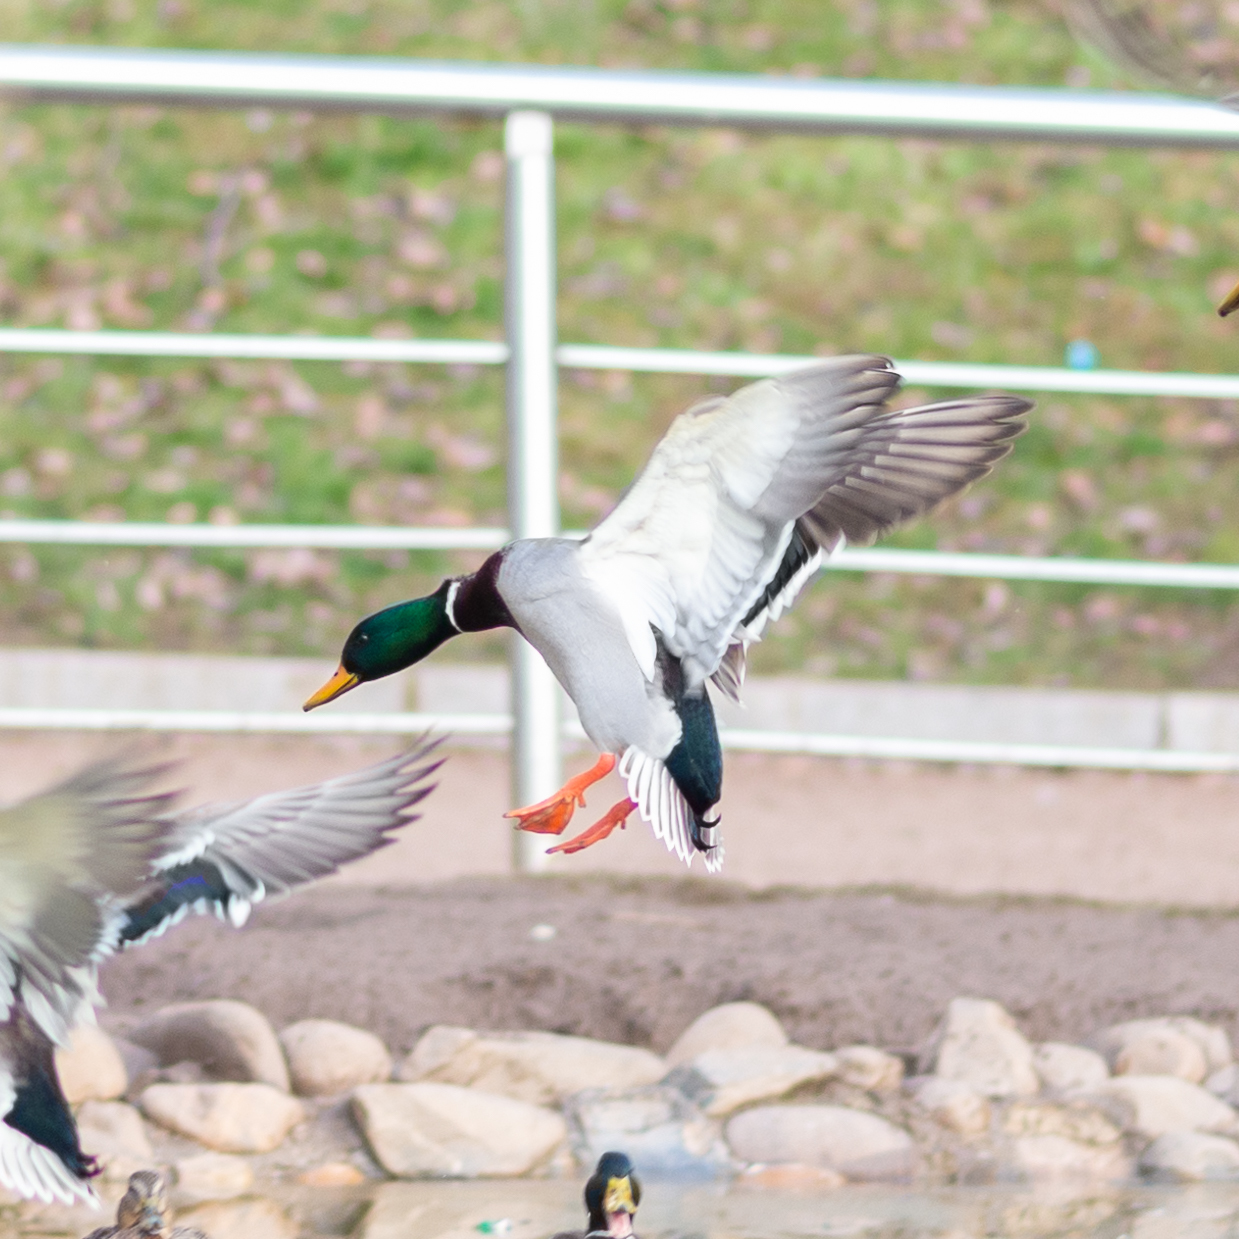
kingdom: Animalia
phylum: Chordata
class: Aves
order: Anseriformes
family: Anatidae
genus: Anas
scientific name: Anas platyrhynchos
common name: Mallard
